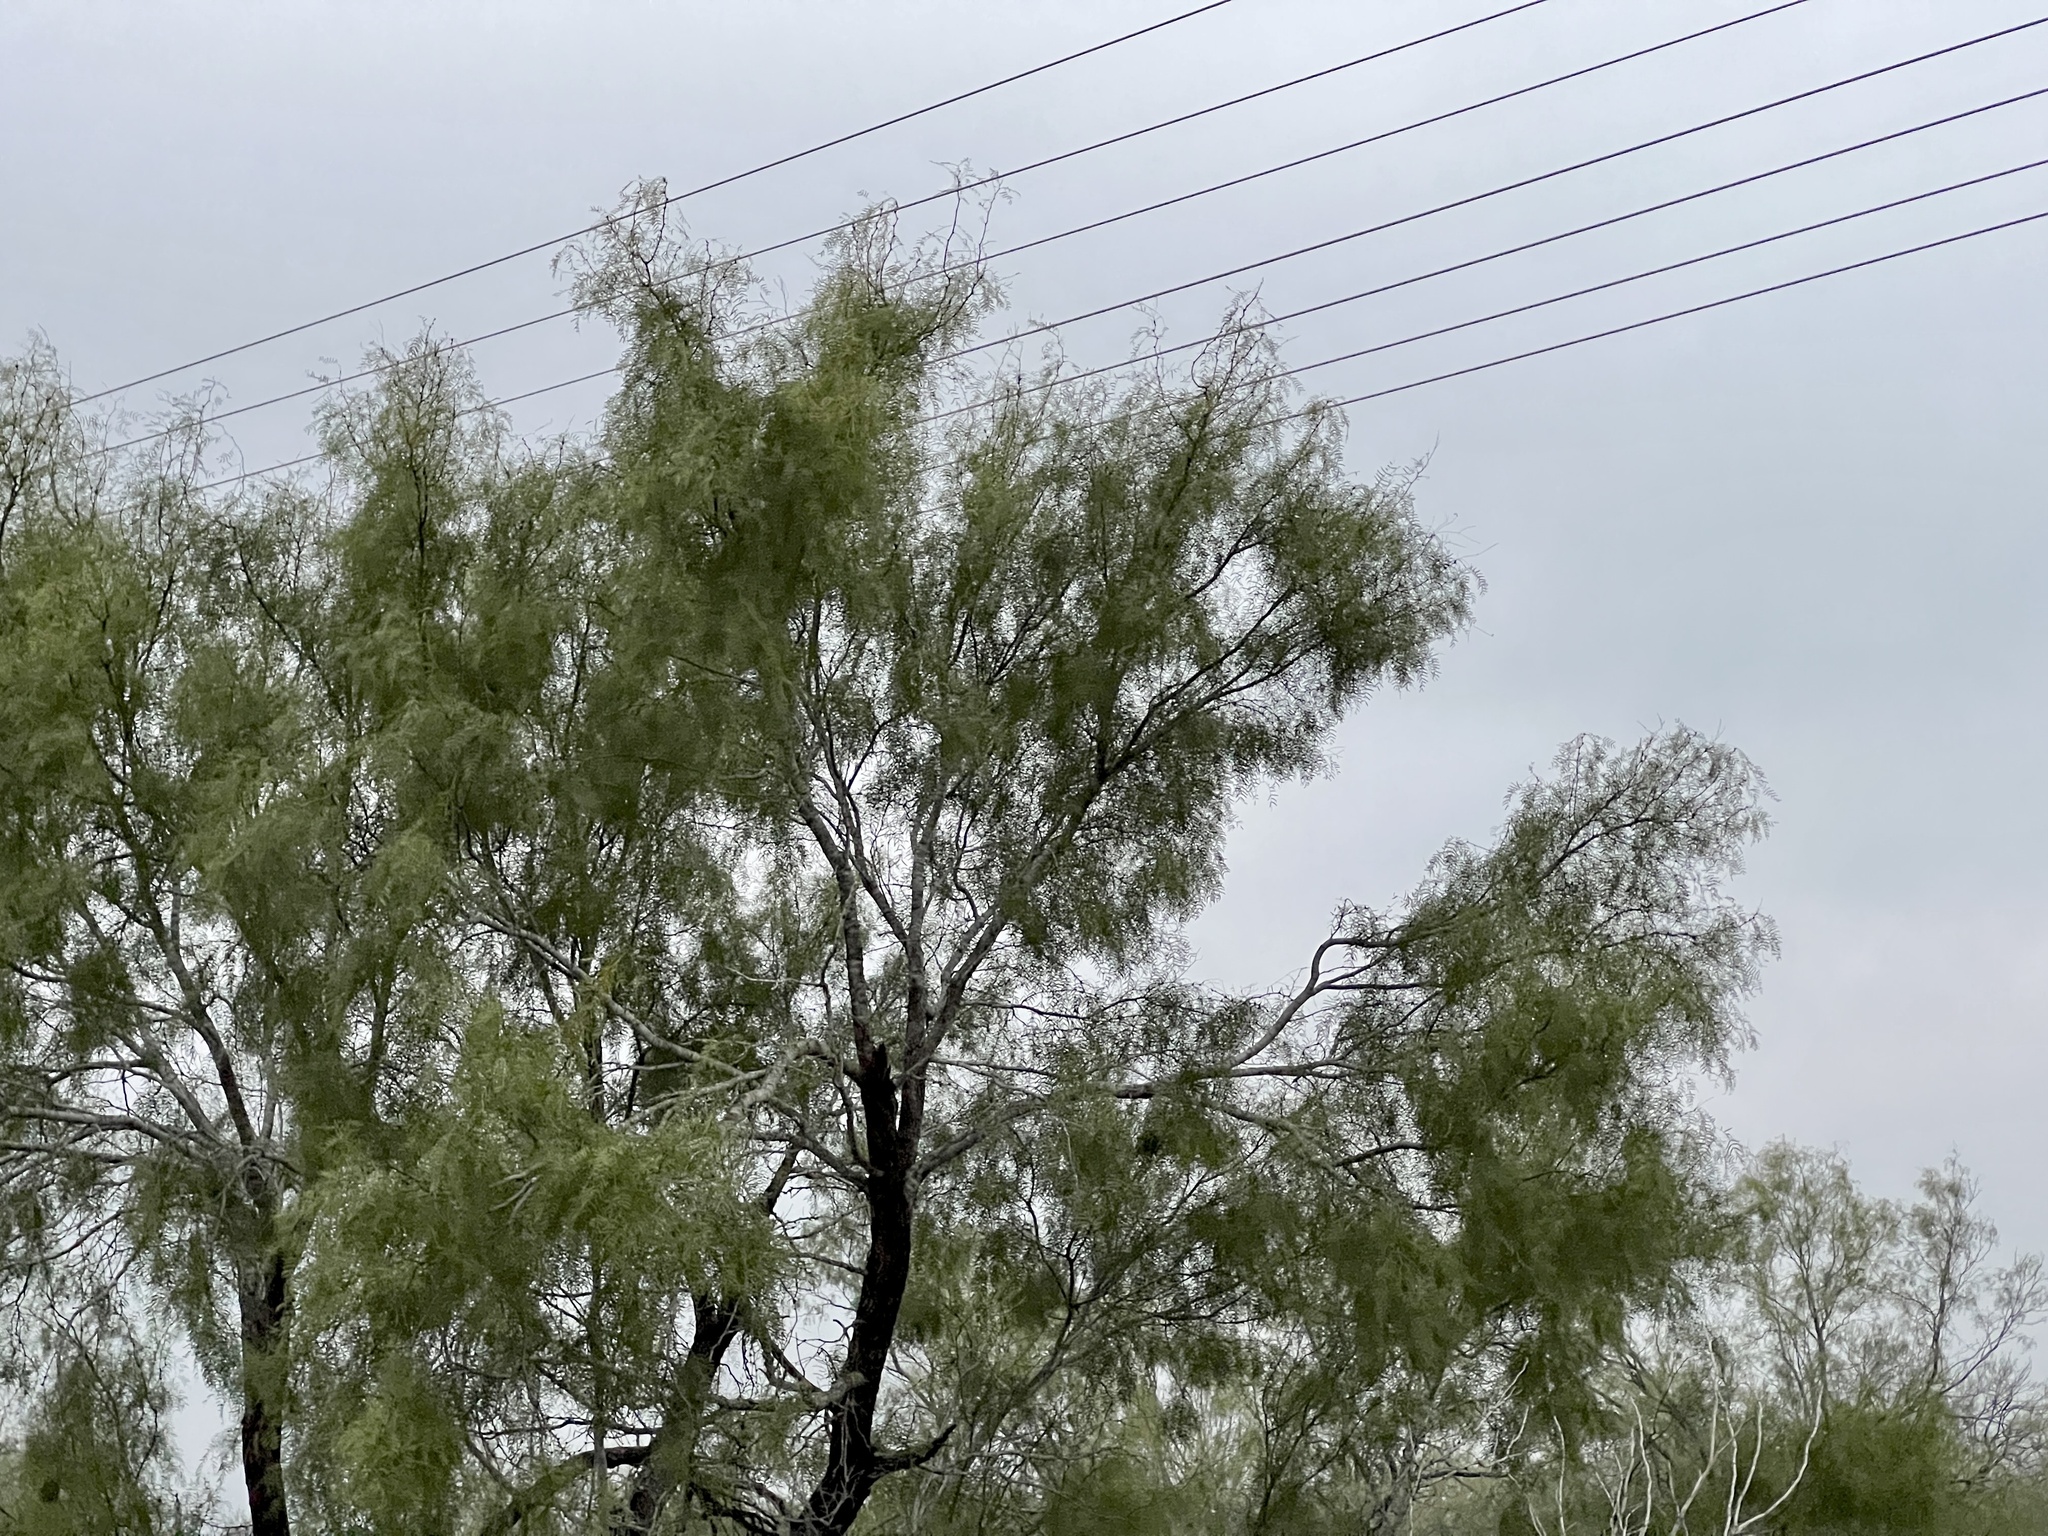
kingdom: Plantae
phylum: Tracheophyta
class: Magnoliopsida
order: Fabales
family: Fabaceae
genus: Prosopis
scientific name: Prosopis glandulosa
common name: Honey mesquite
